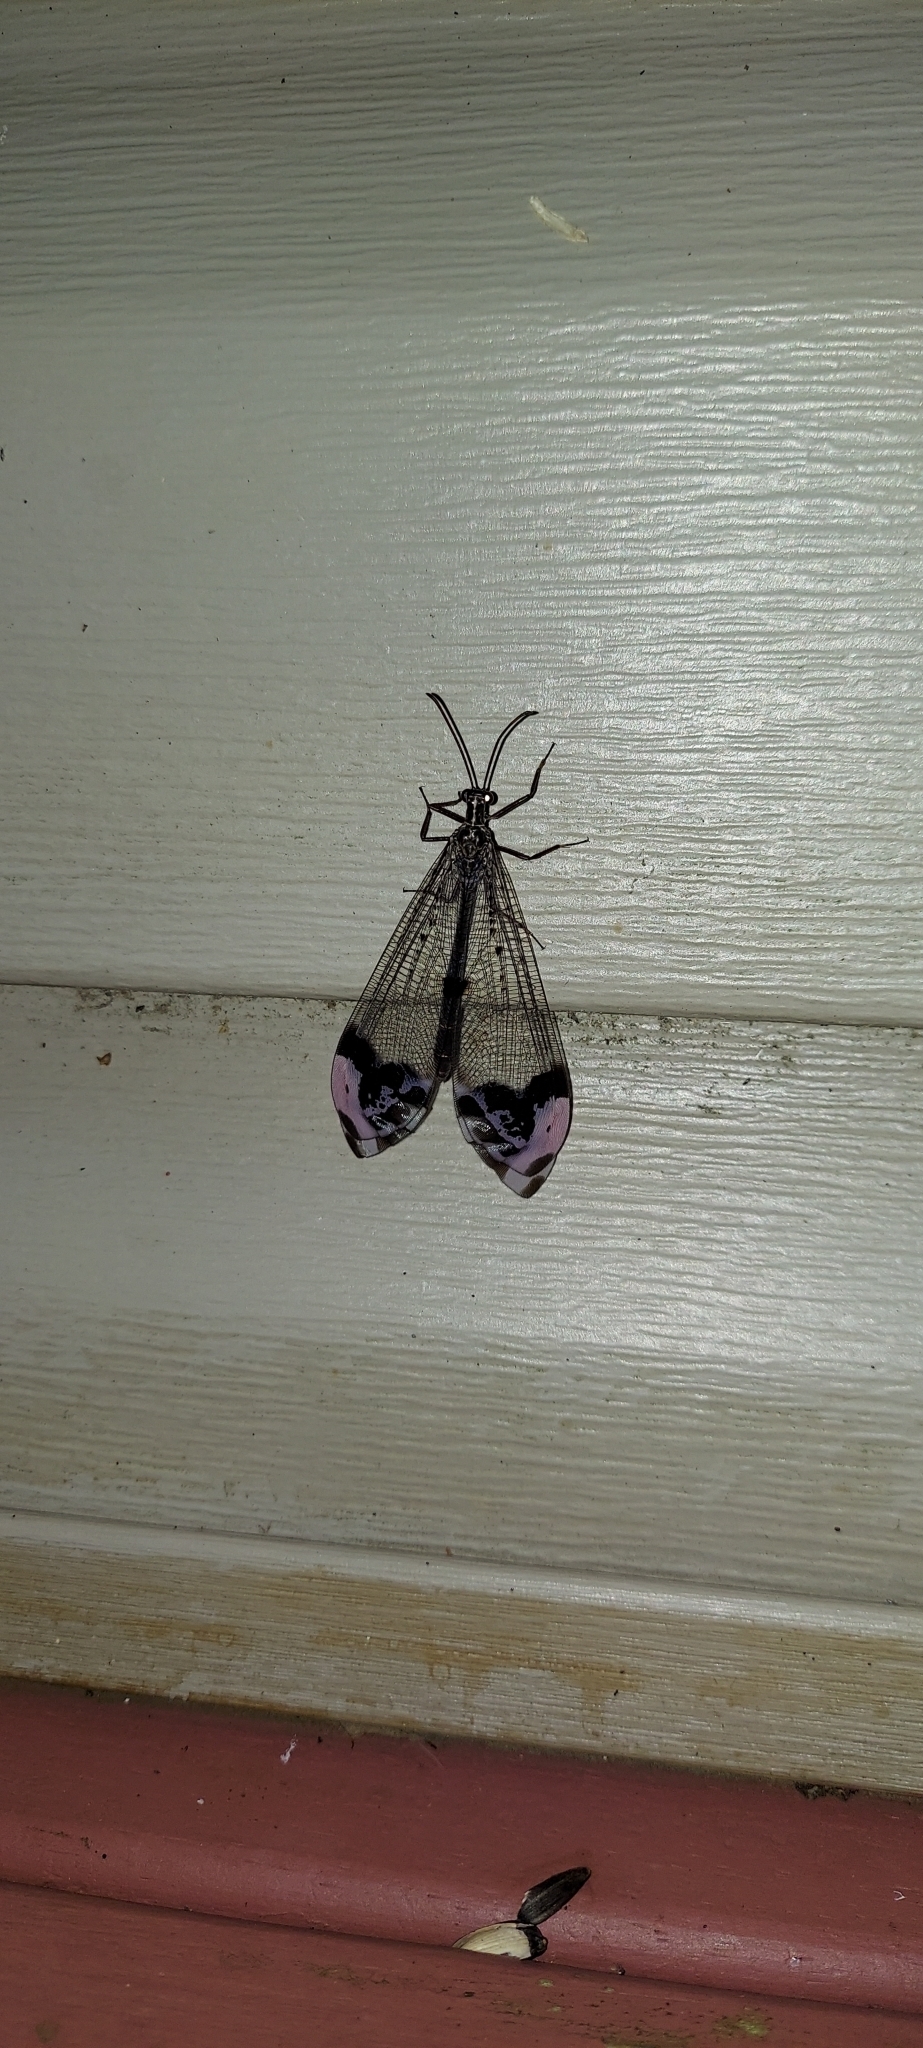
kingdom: Animalia
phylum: Arthropoda
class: Insecta
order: Neuroptera
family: Myrmeleontidae
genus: Glenurus
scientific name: Glenurus gratus
